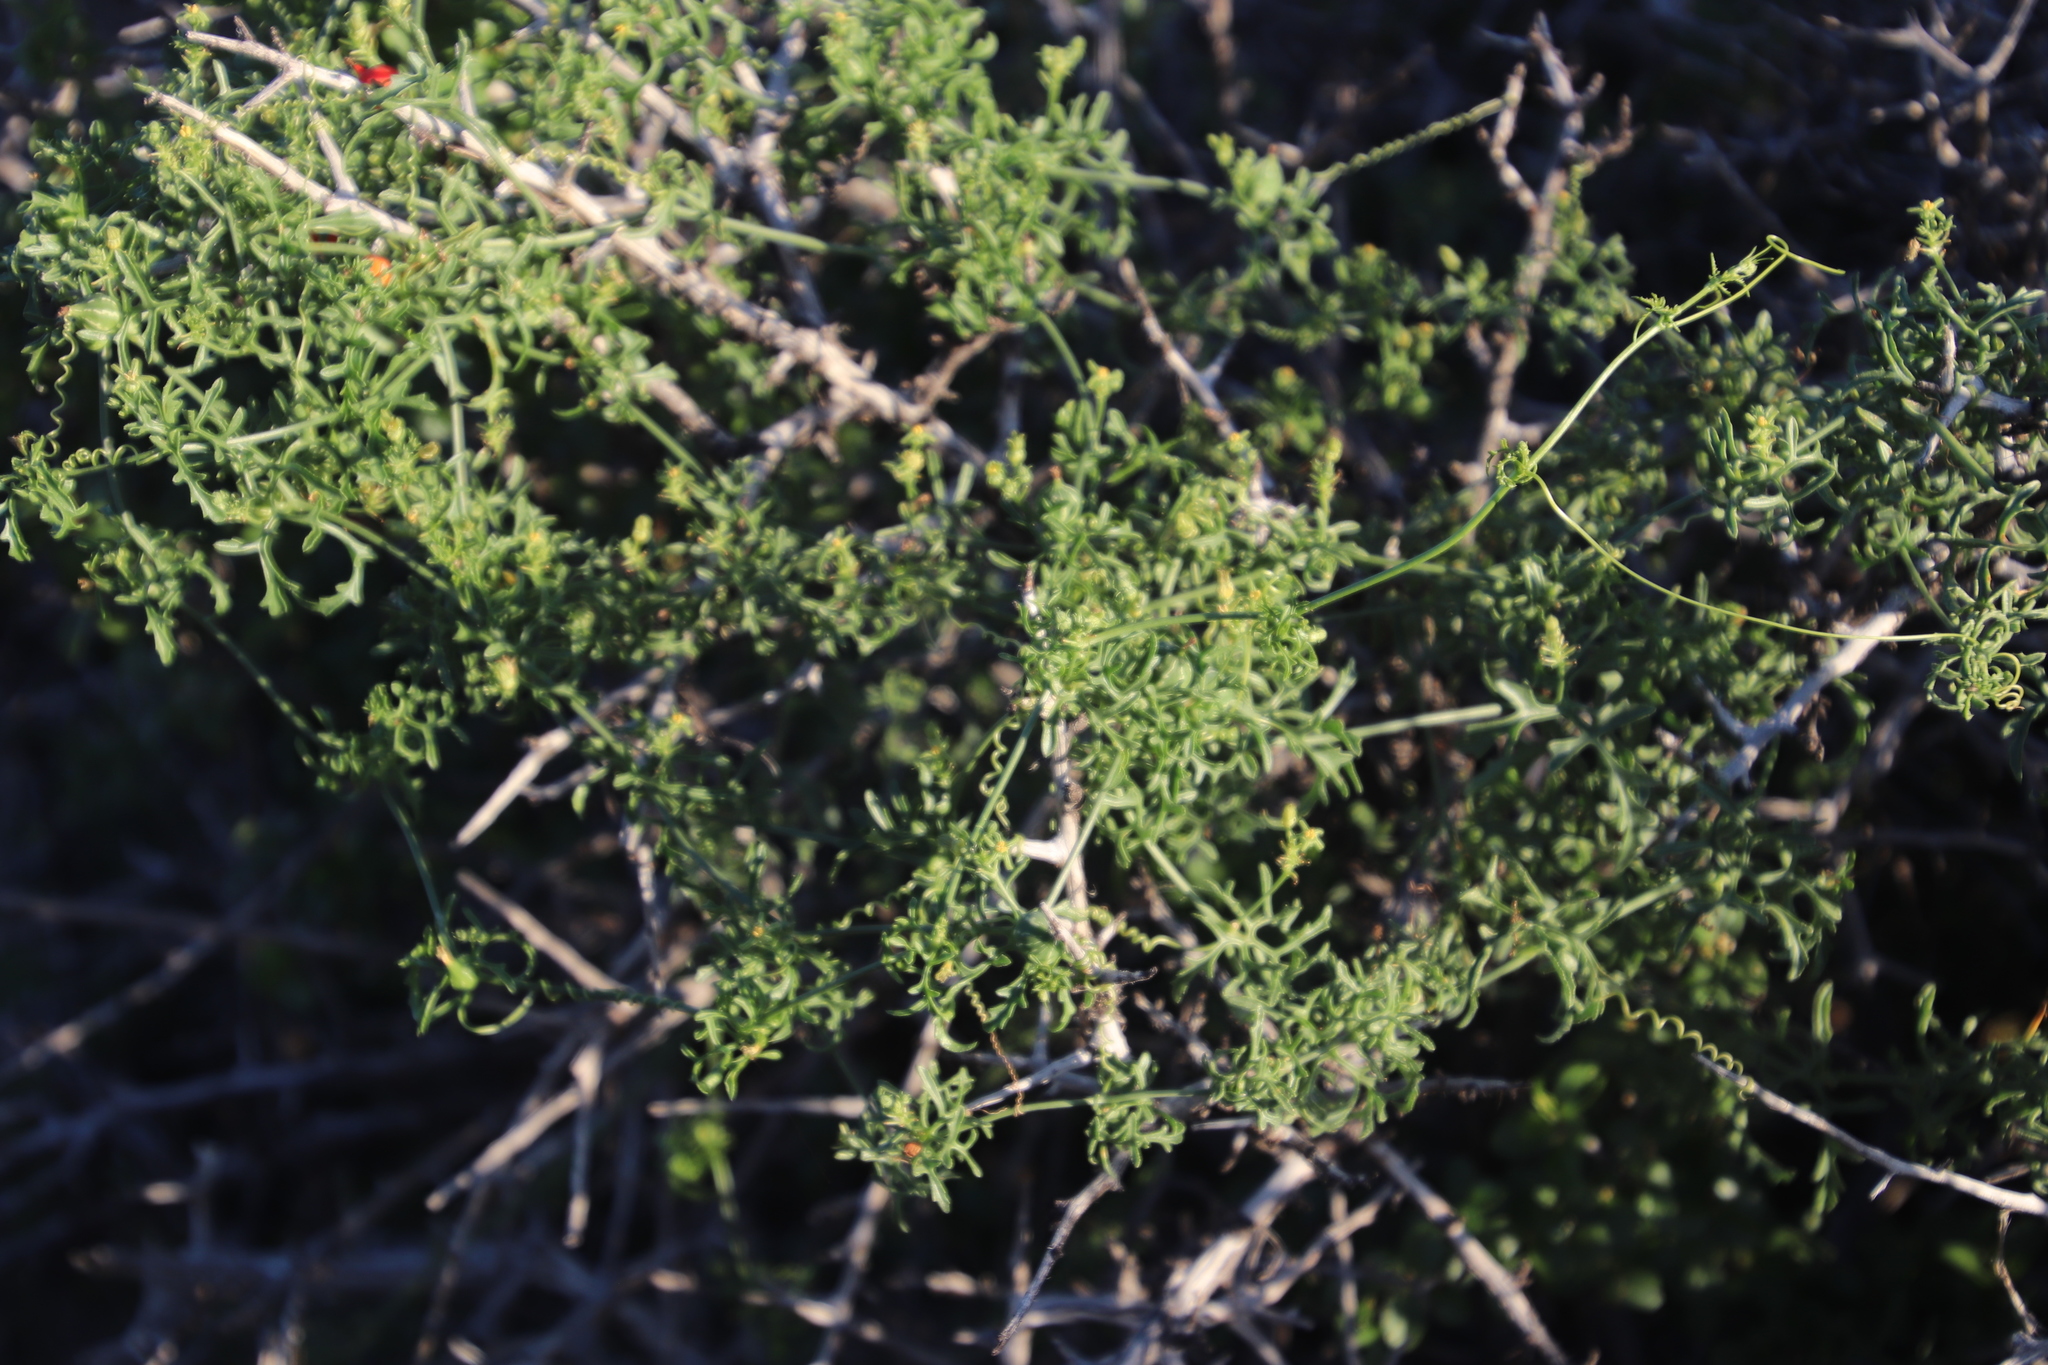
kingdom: Plantae
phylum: Tracheophyta
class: Magnoliopsida
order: Cucurbitales
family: Cucurbitaceae
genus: Kedrostis
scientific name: Kedrostis africana
